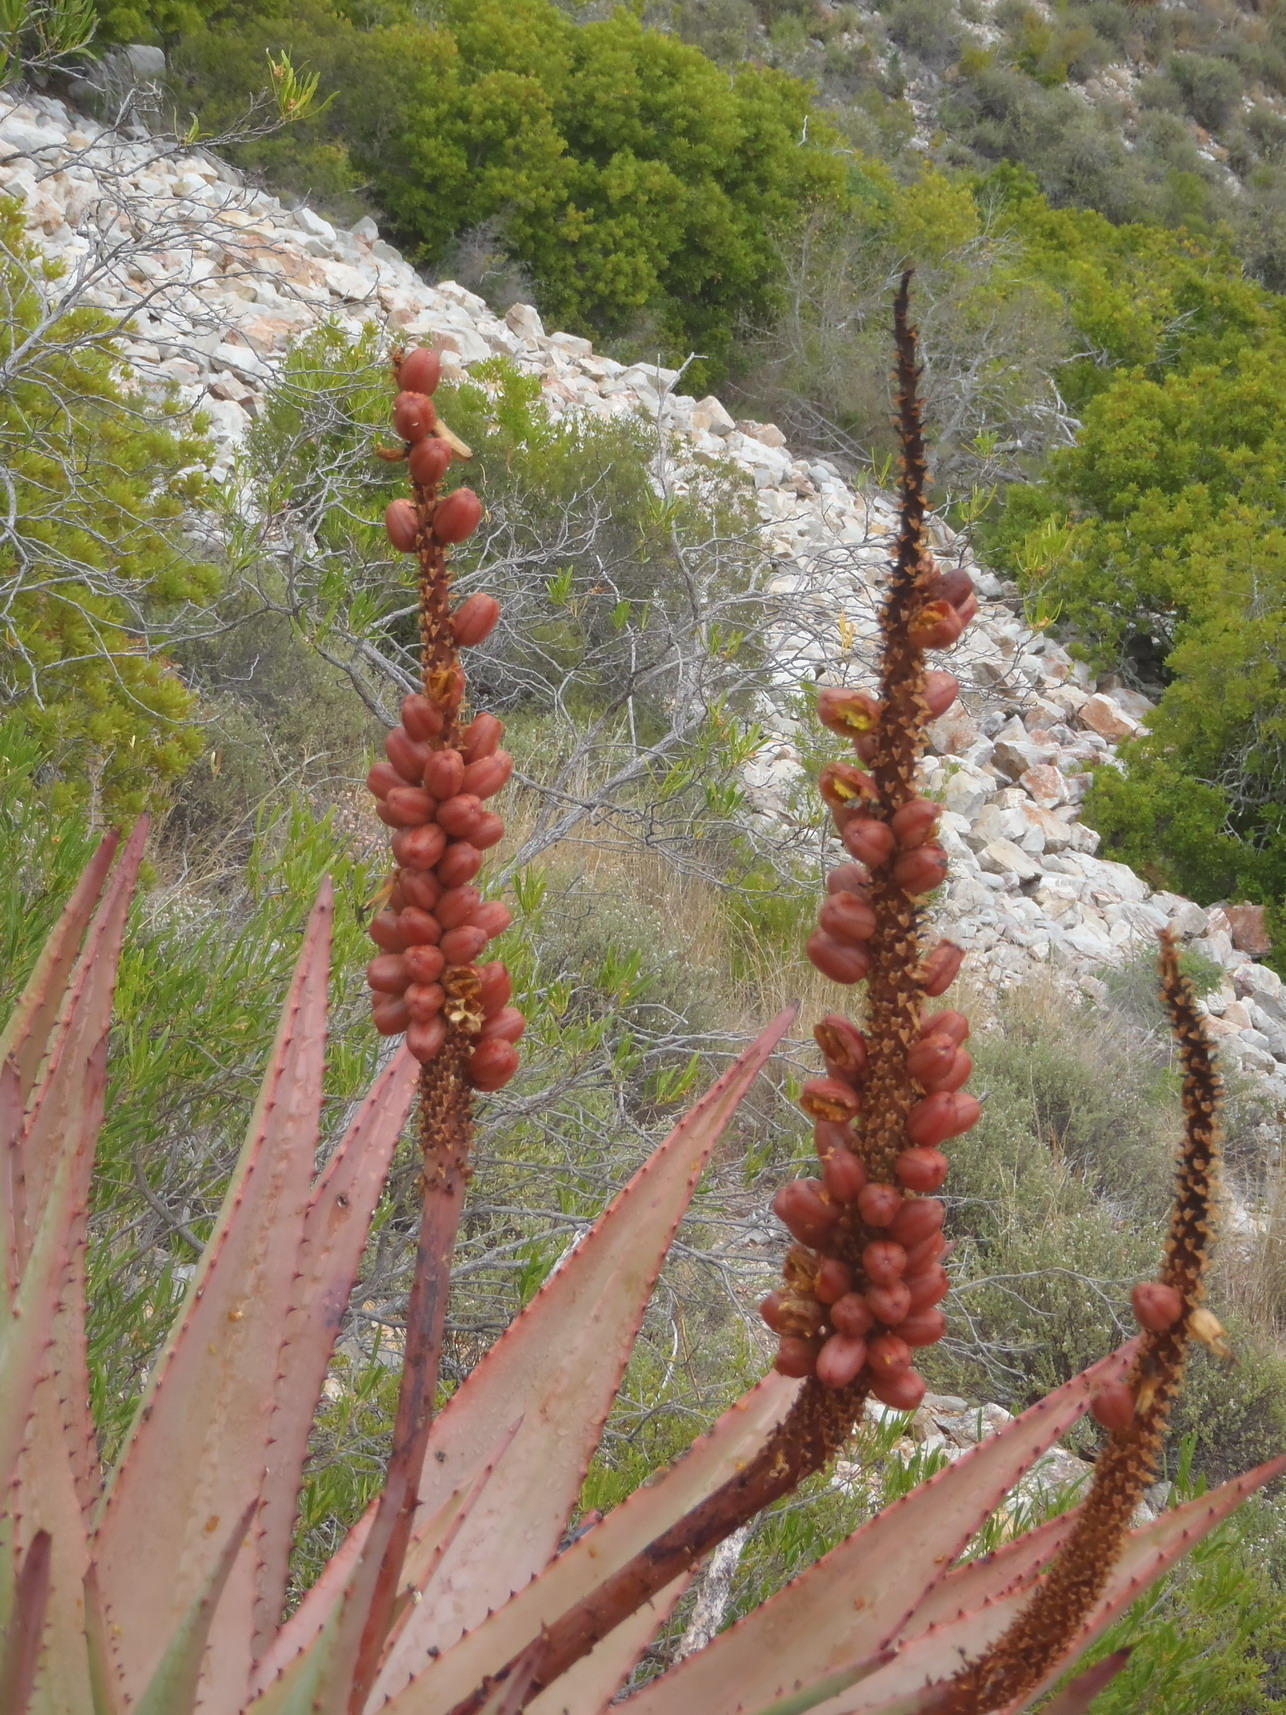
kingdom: Plantae
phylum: Tracheophyta
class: Liliopsida
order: Asparagales
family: Asphodelaceae
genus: Aloe
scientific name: Aloe ferox
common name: Bitter aloe
